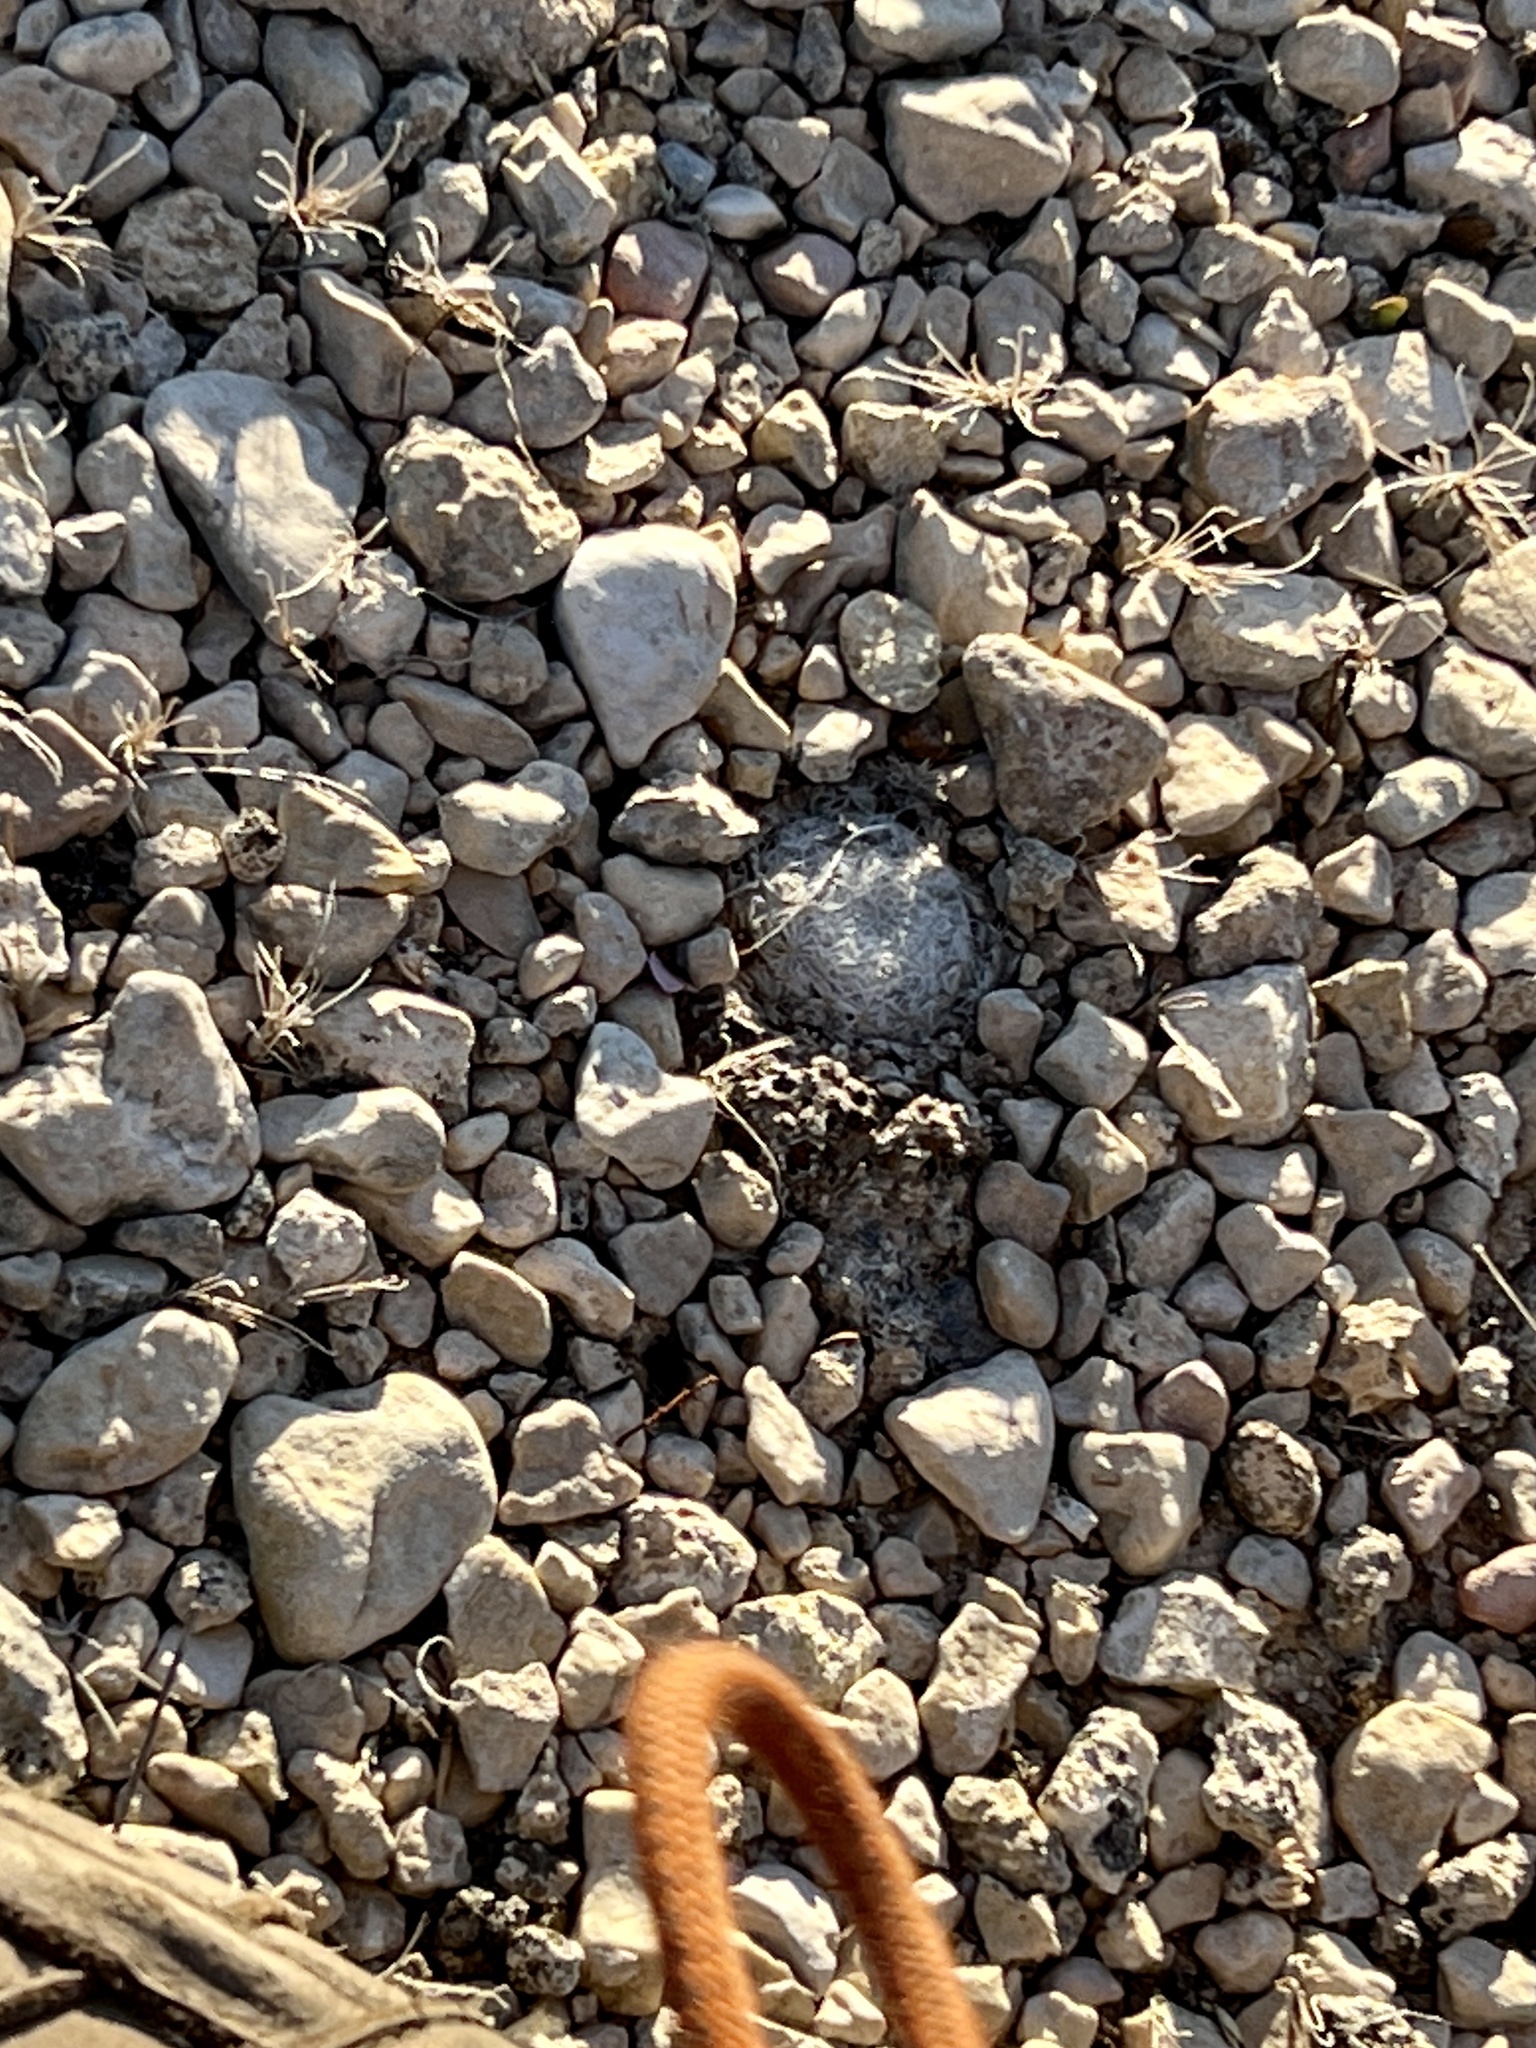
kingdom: Plantae
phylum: Tracheophyta
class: Magnoliopsida
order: Caryophyllales
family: Cactaceae
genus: Mammillaria
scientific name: Mammillaria lasiacantha
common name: Lace-spine nipple cactus
